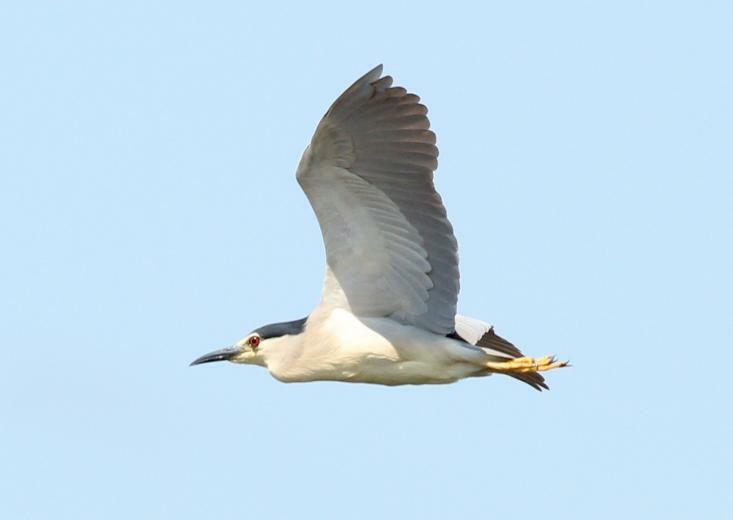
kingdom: Animalia
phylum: Chordata
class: Aves
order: Pelecaniformes
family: Ardeidae
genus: Nycticorax
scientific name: Nycticorax nycticorax
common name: Black-crowned night heron
